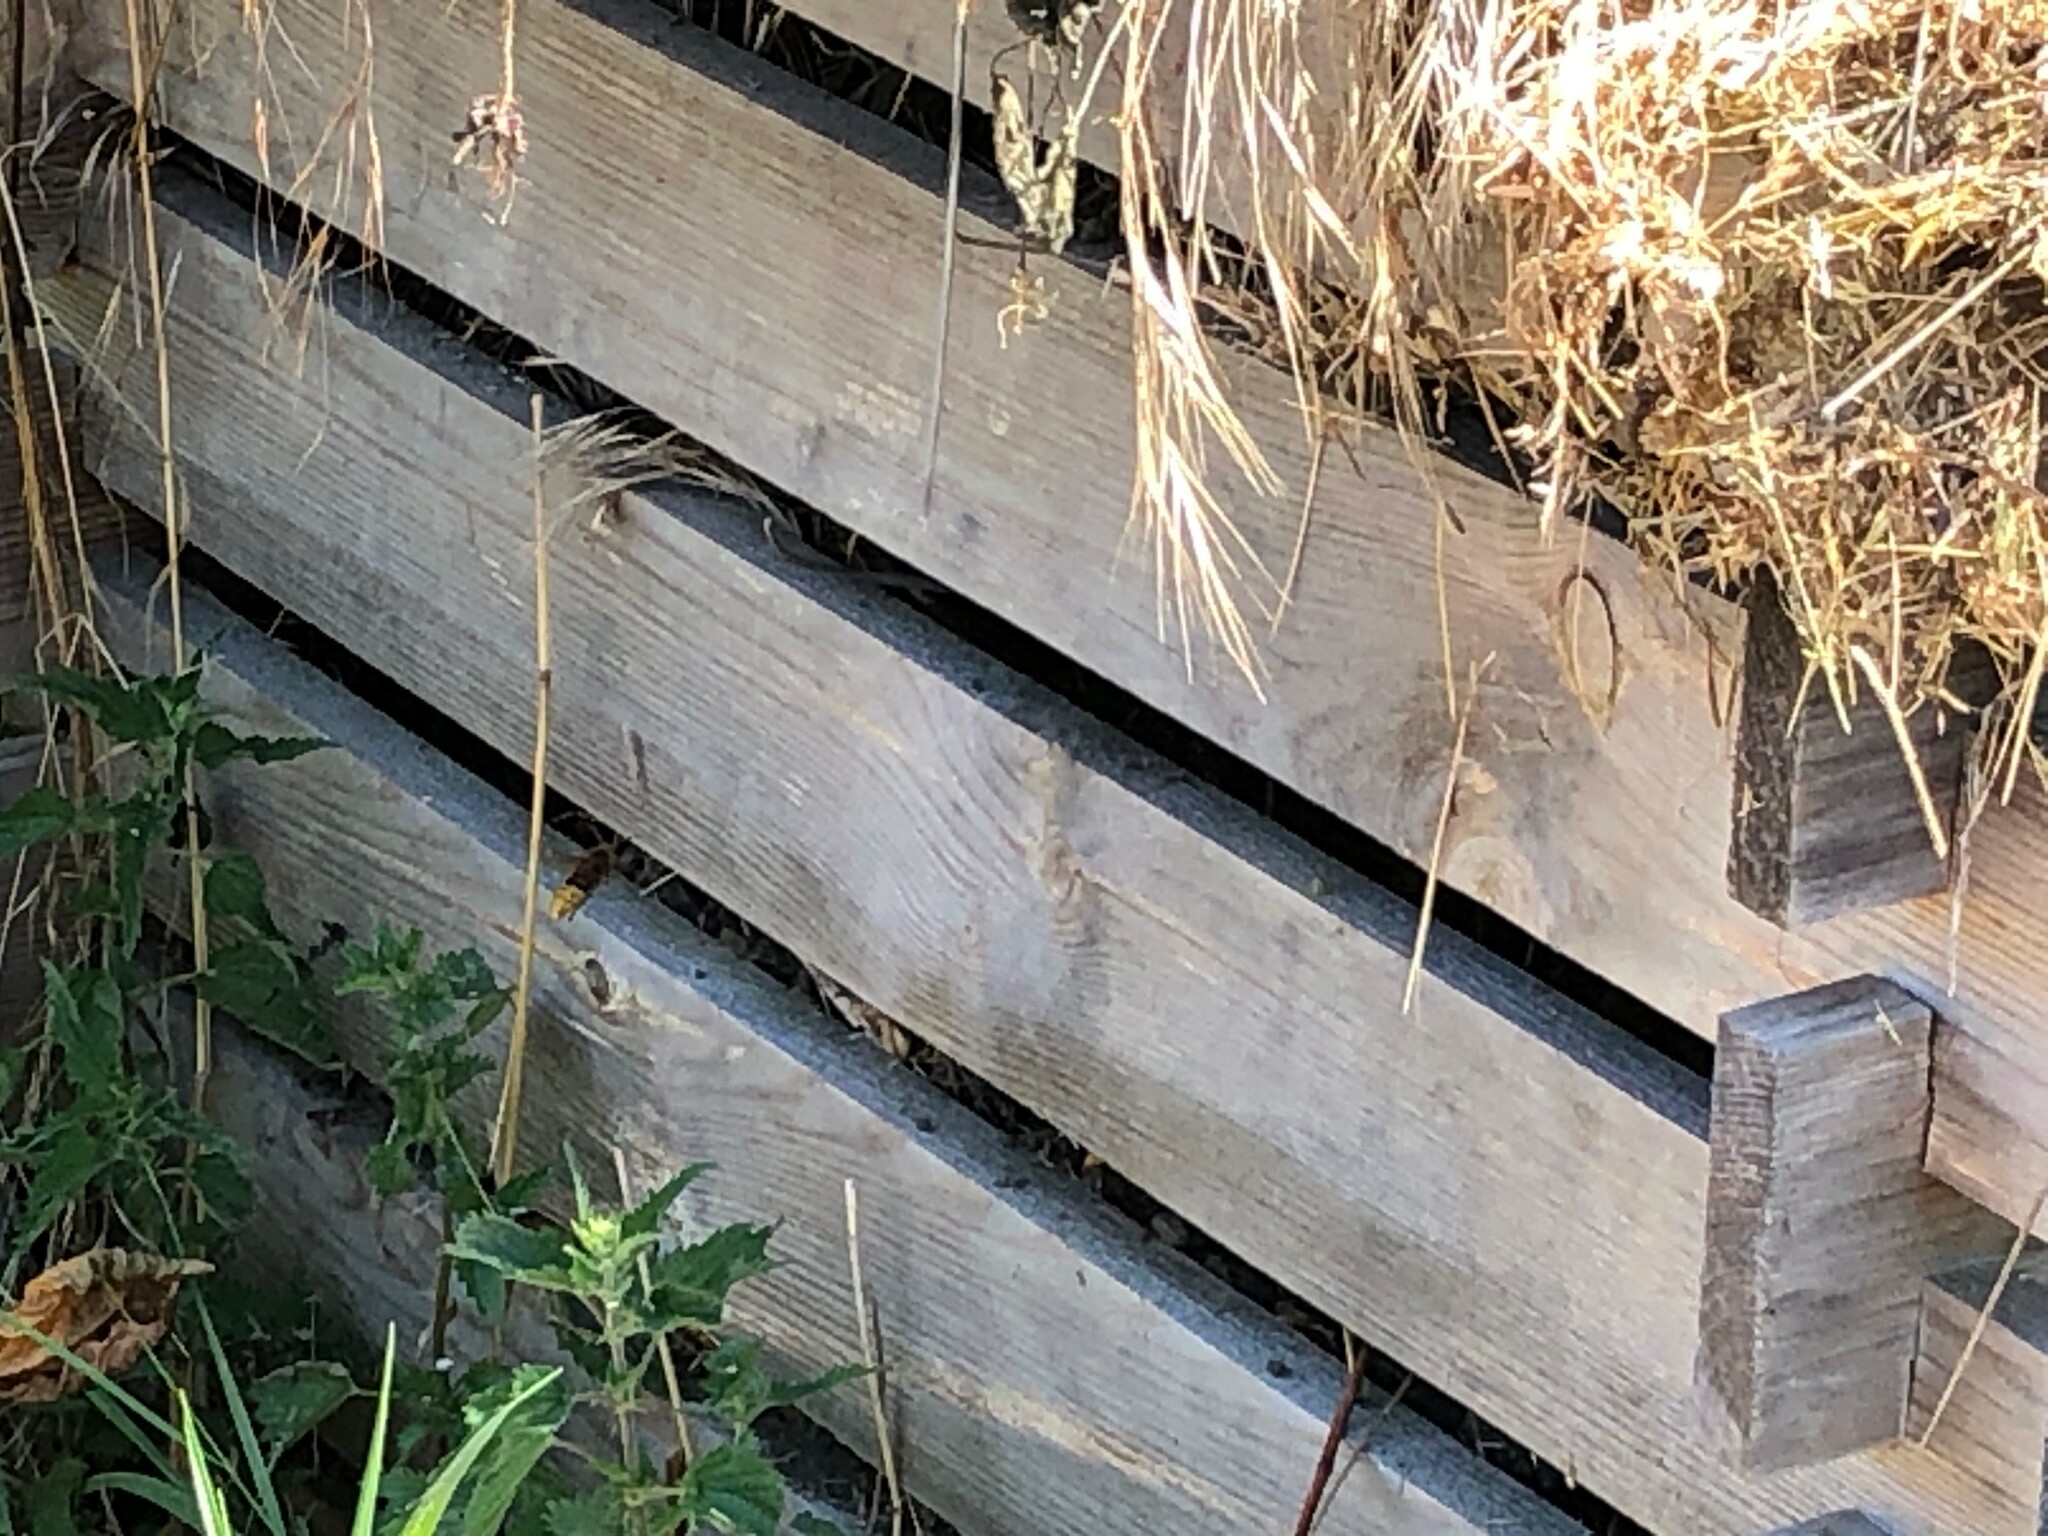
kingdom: Animalia
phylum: Arthropoda
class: Insecta
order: Hymenoptera
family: Vespidae
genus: Vespa
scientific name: Vespa crabro
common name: Hornet
